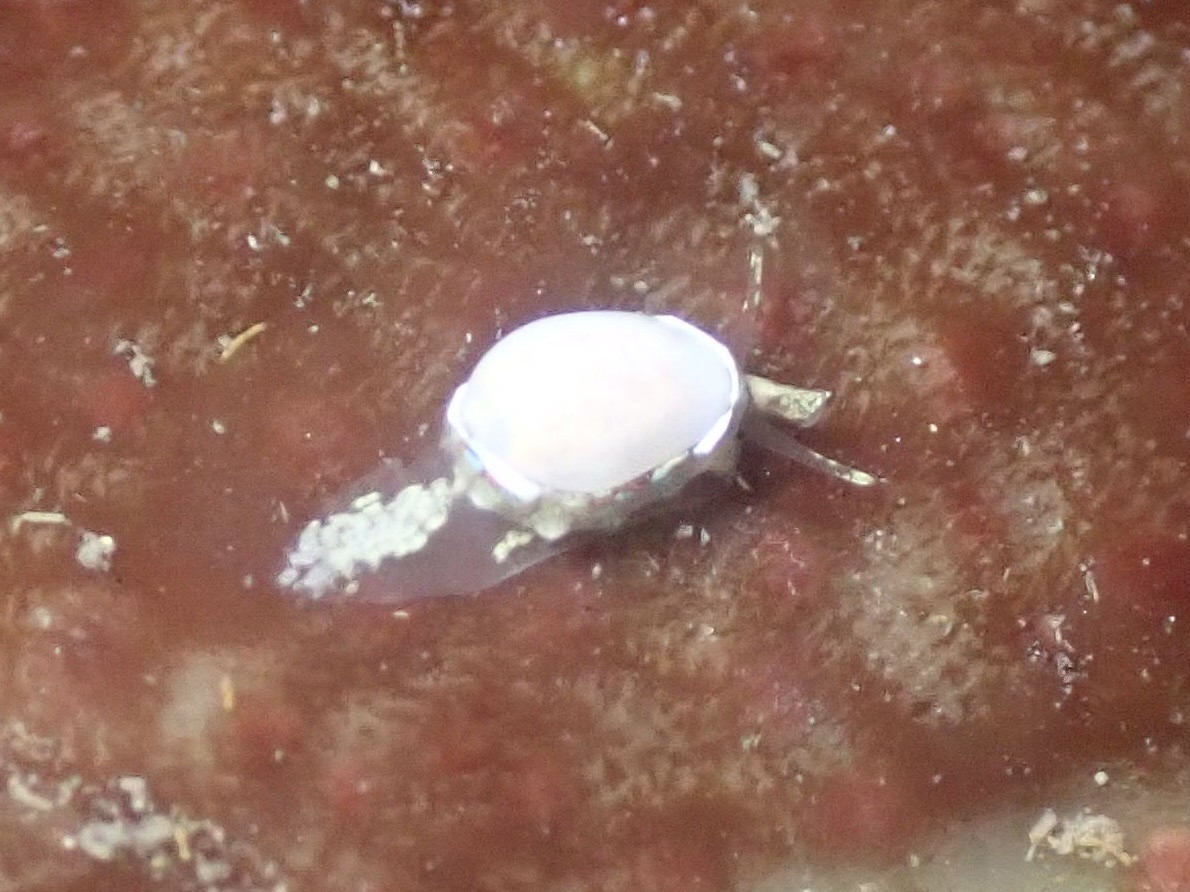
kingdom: Animalia
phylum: Mollusca
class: Gastropoda
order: Neogastropoda
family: Granulinidae
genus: Granulina
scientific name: Granulina margaritula
